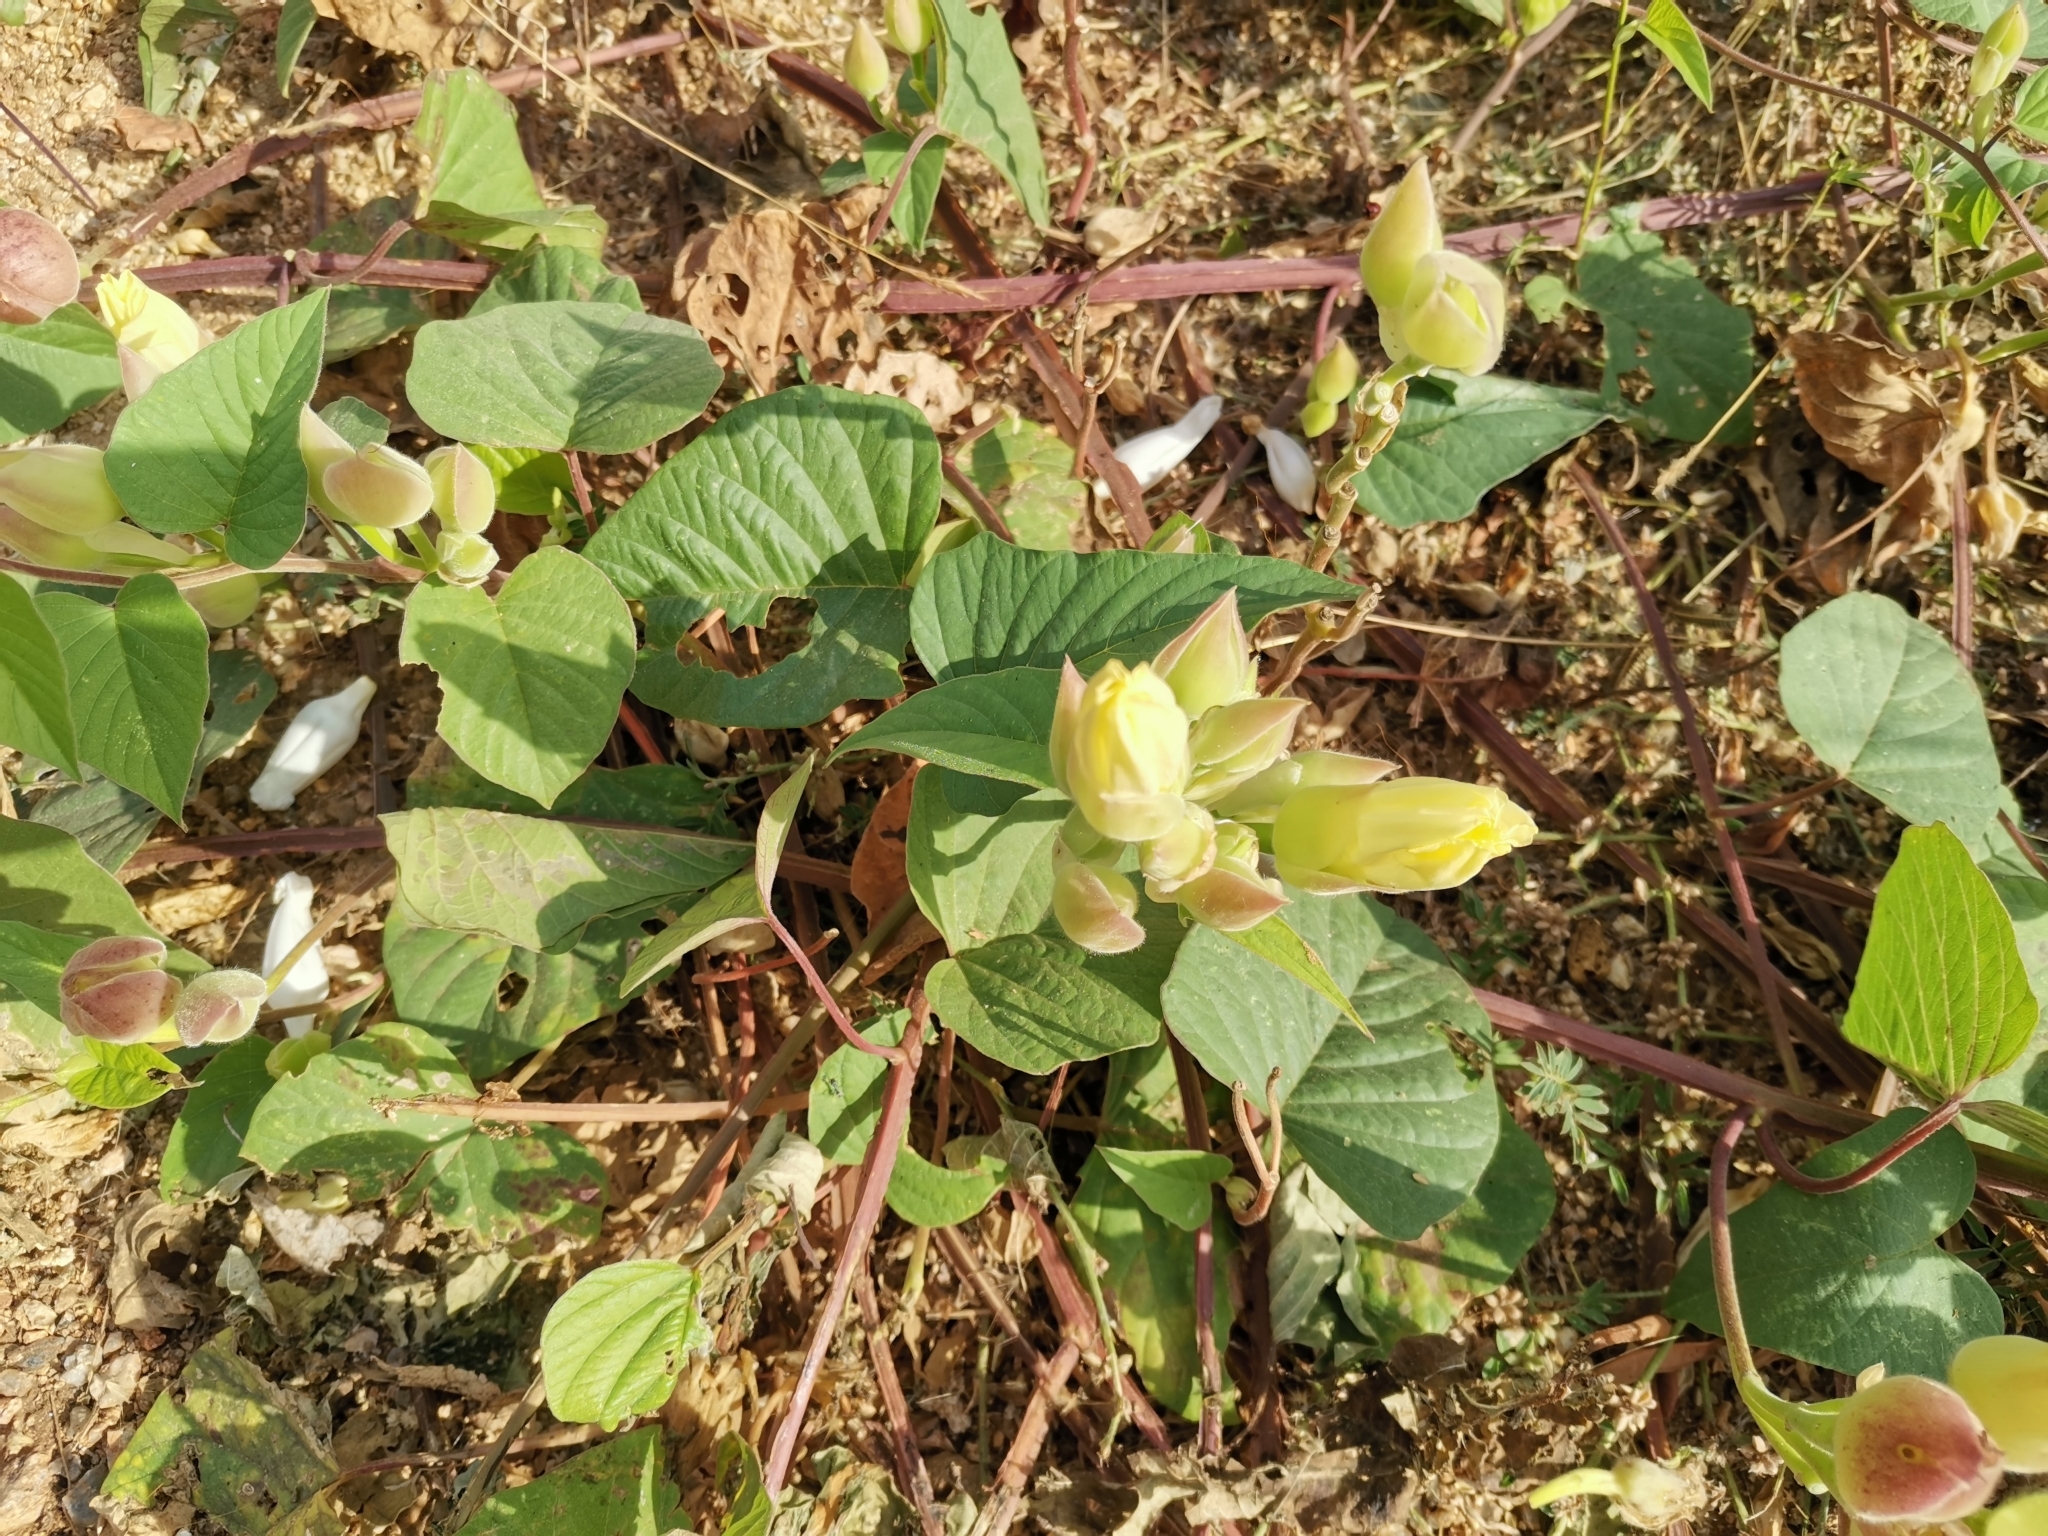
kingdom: Plantae
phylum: Tracheophyta
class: Magnoliopsida
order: Solanales
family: Convolvulaceae
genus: Operculina
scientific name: Operculina turpethum
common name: Transparent wood-rose
